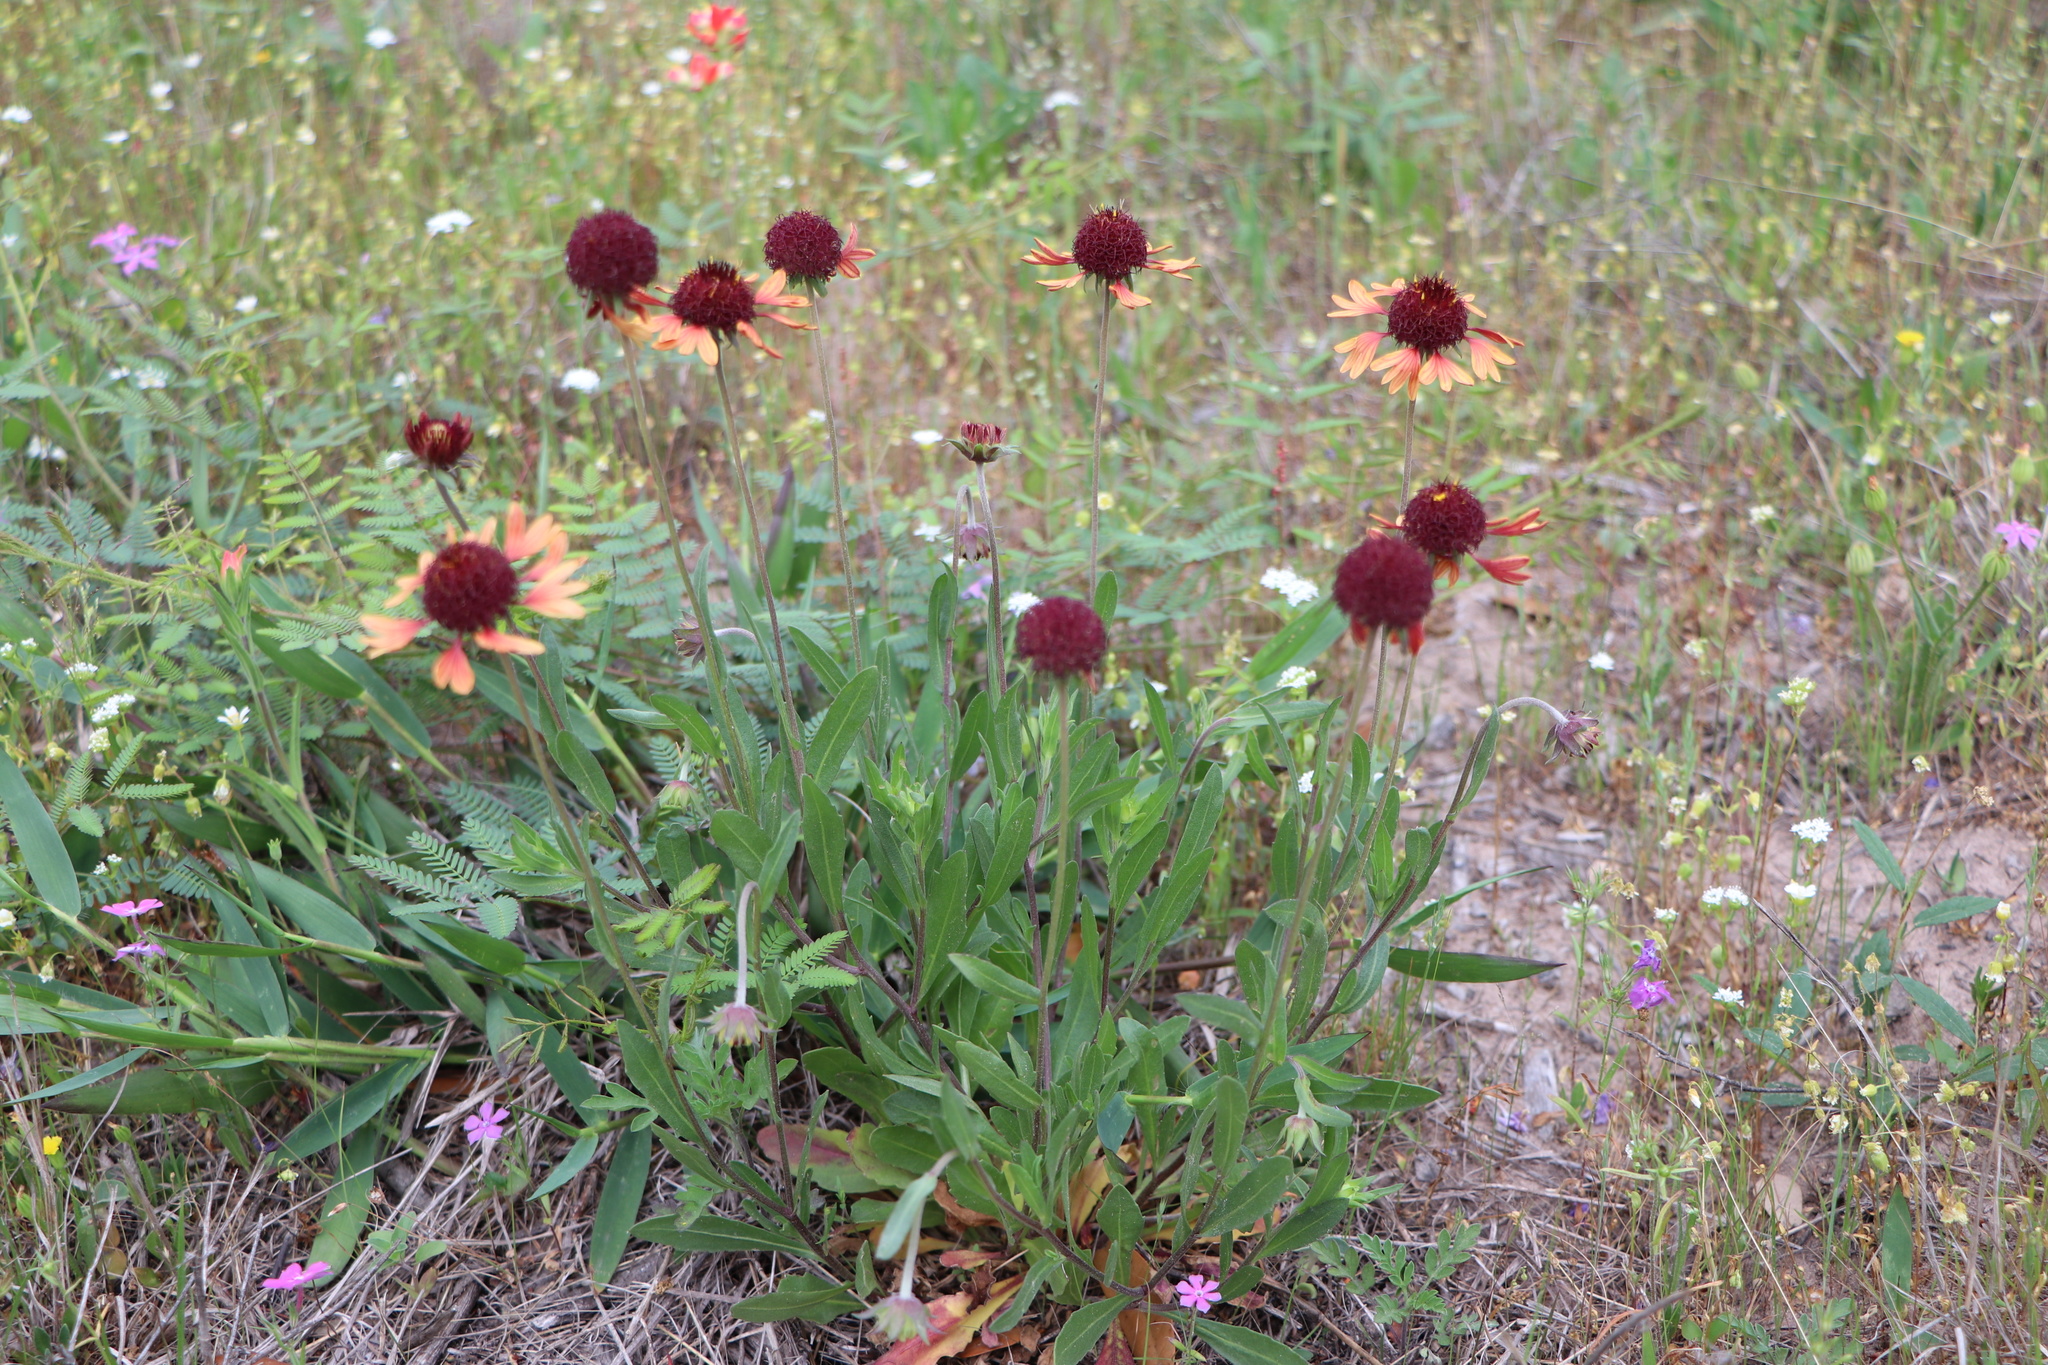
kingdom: Plantae
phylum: Tracheophyta
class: Magnoliopsida
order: Asterales
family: Asteraceae
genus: Gaillardia
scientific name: Gaillardia aestivalis
